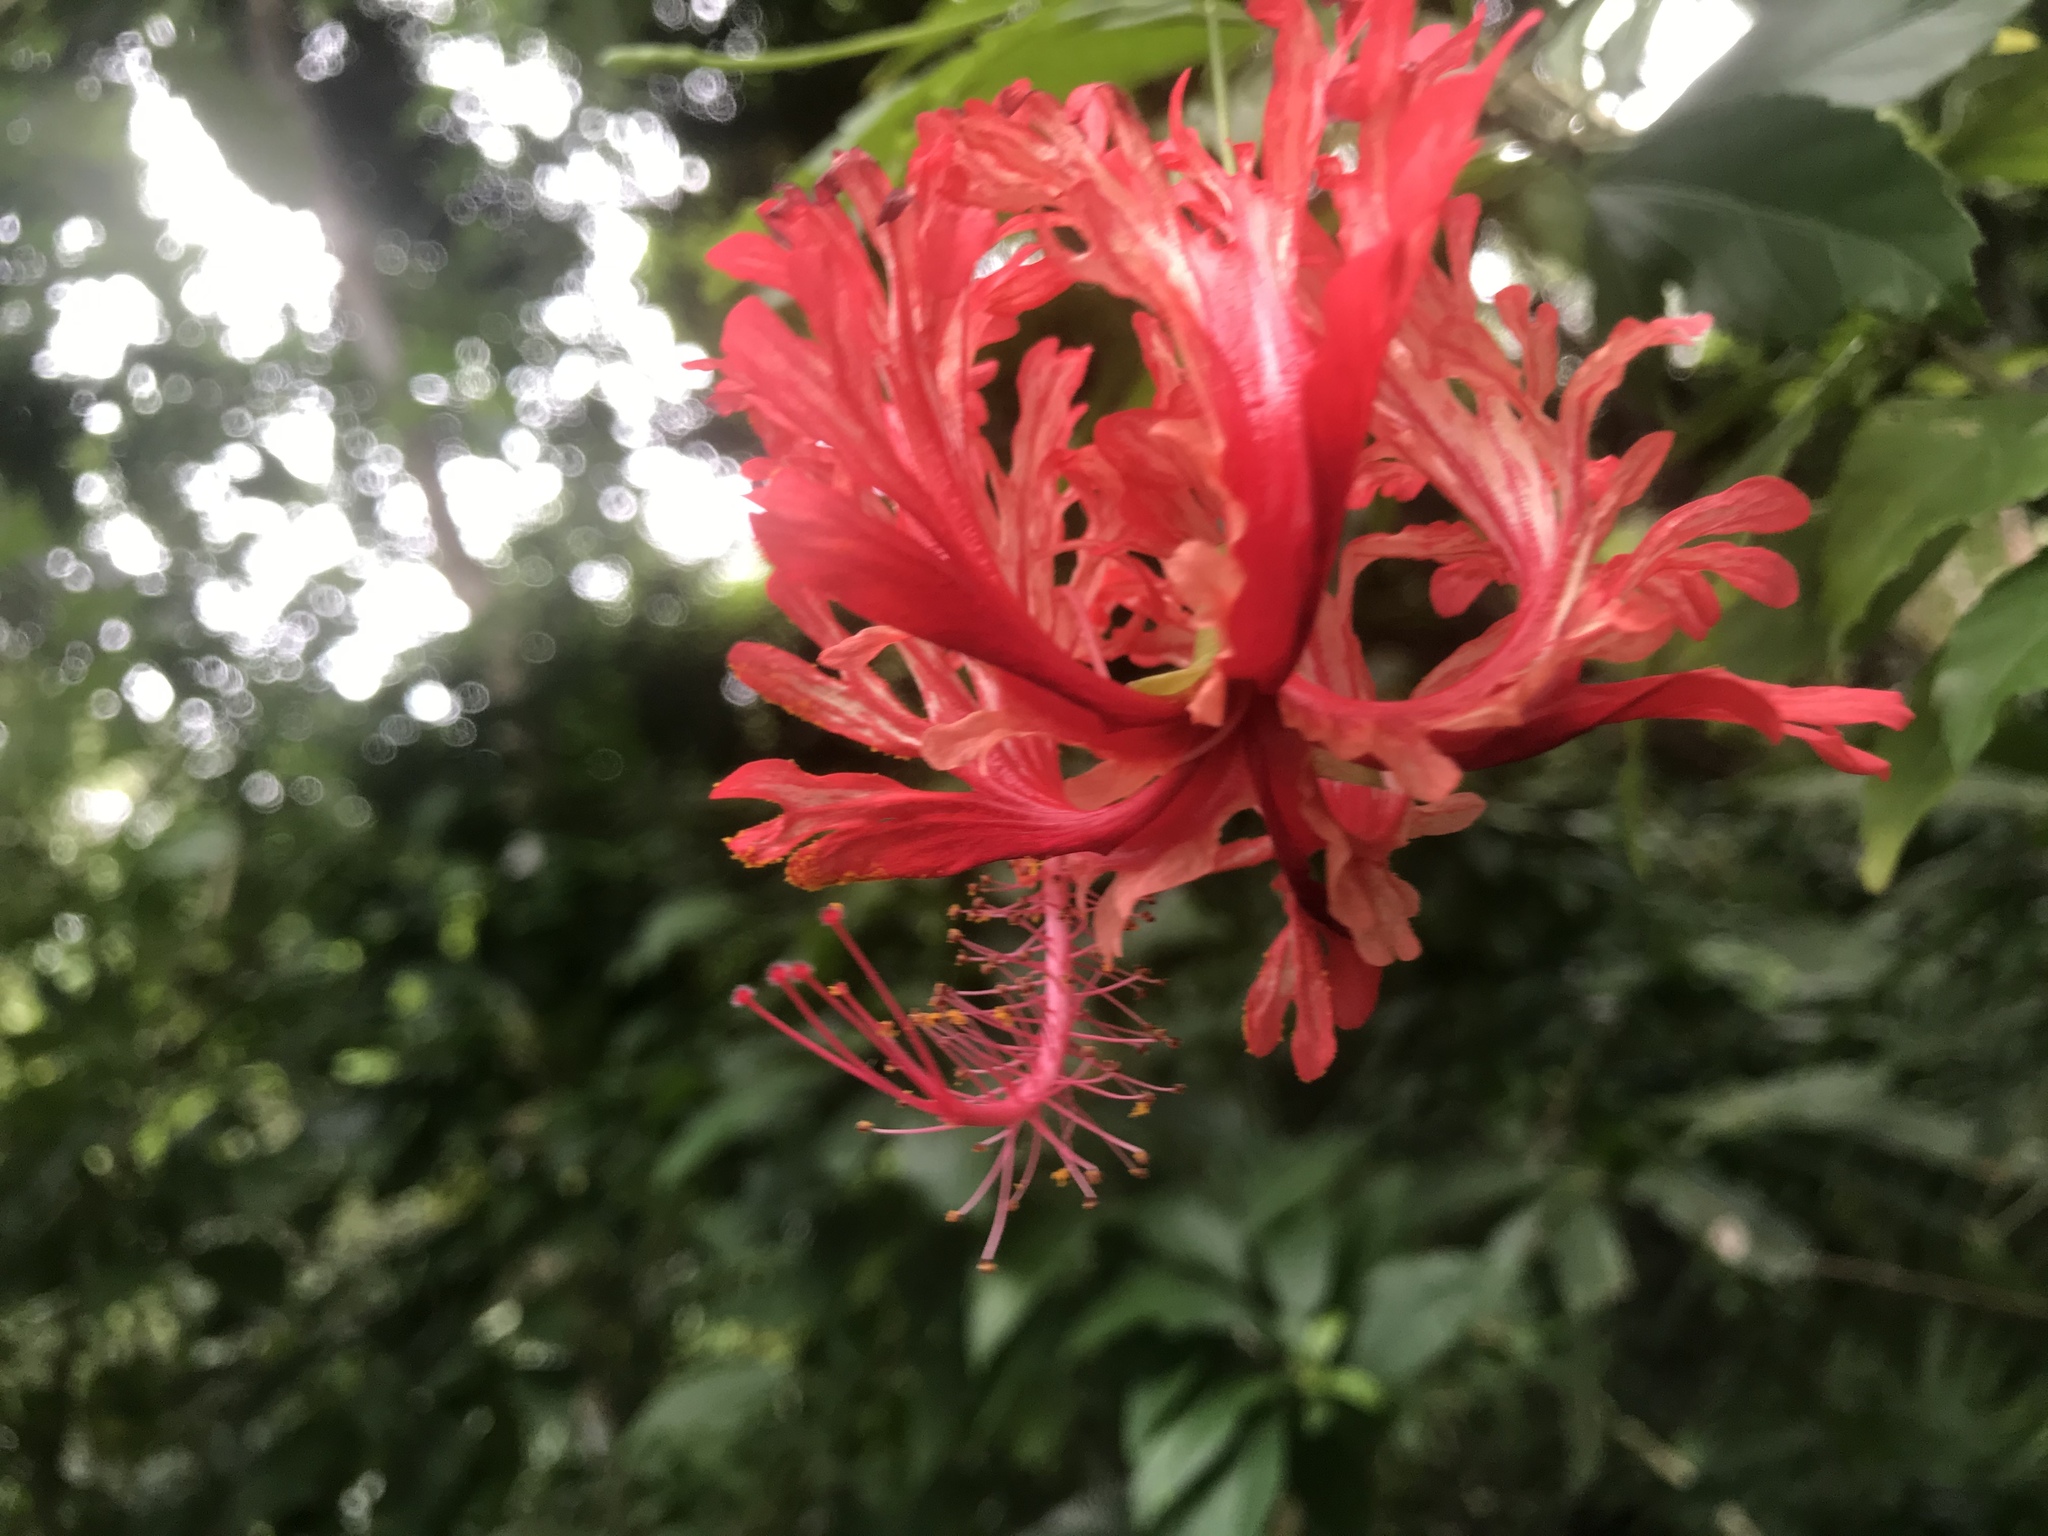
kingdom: Plantae
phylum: Tracheophyta
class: Magnoliopsida
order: Malvales
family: Malvaceae
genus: Hibiscus
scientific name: Hibiscus schizopetalus
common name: Fringed rosemallow
